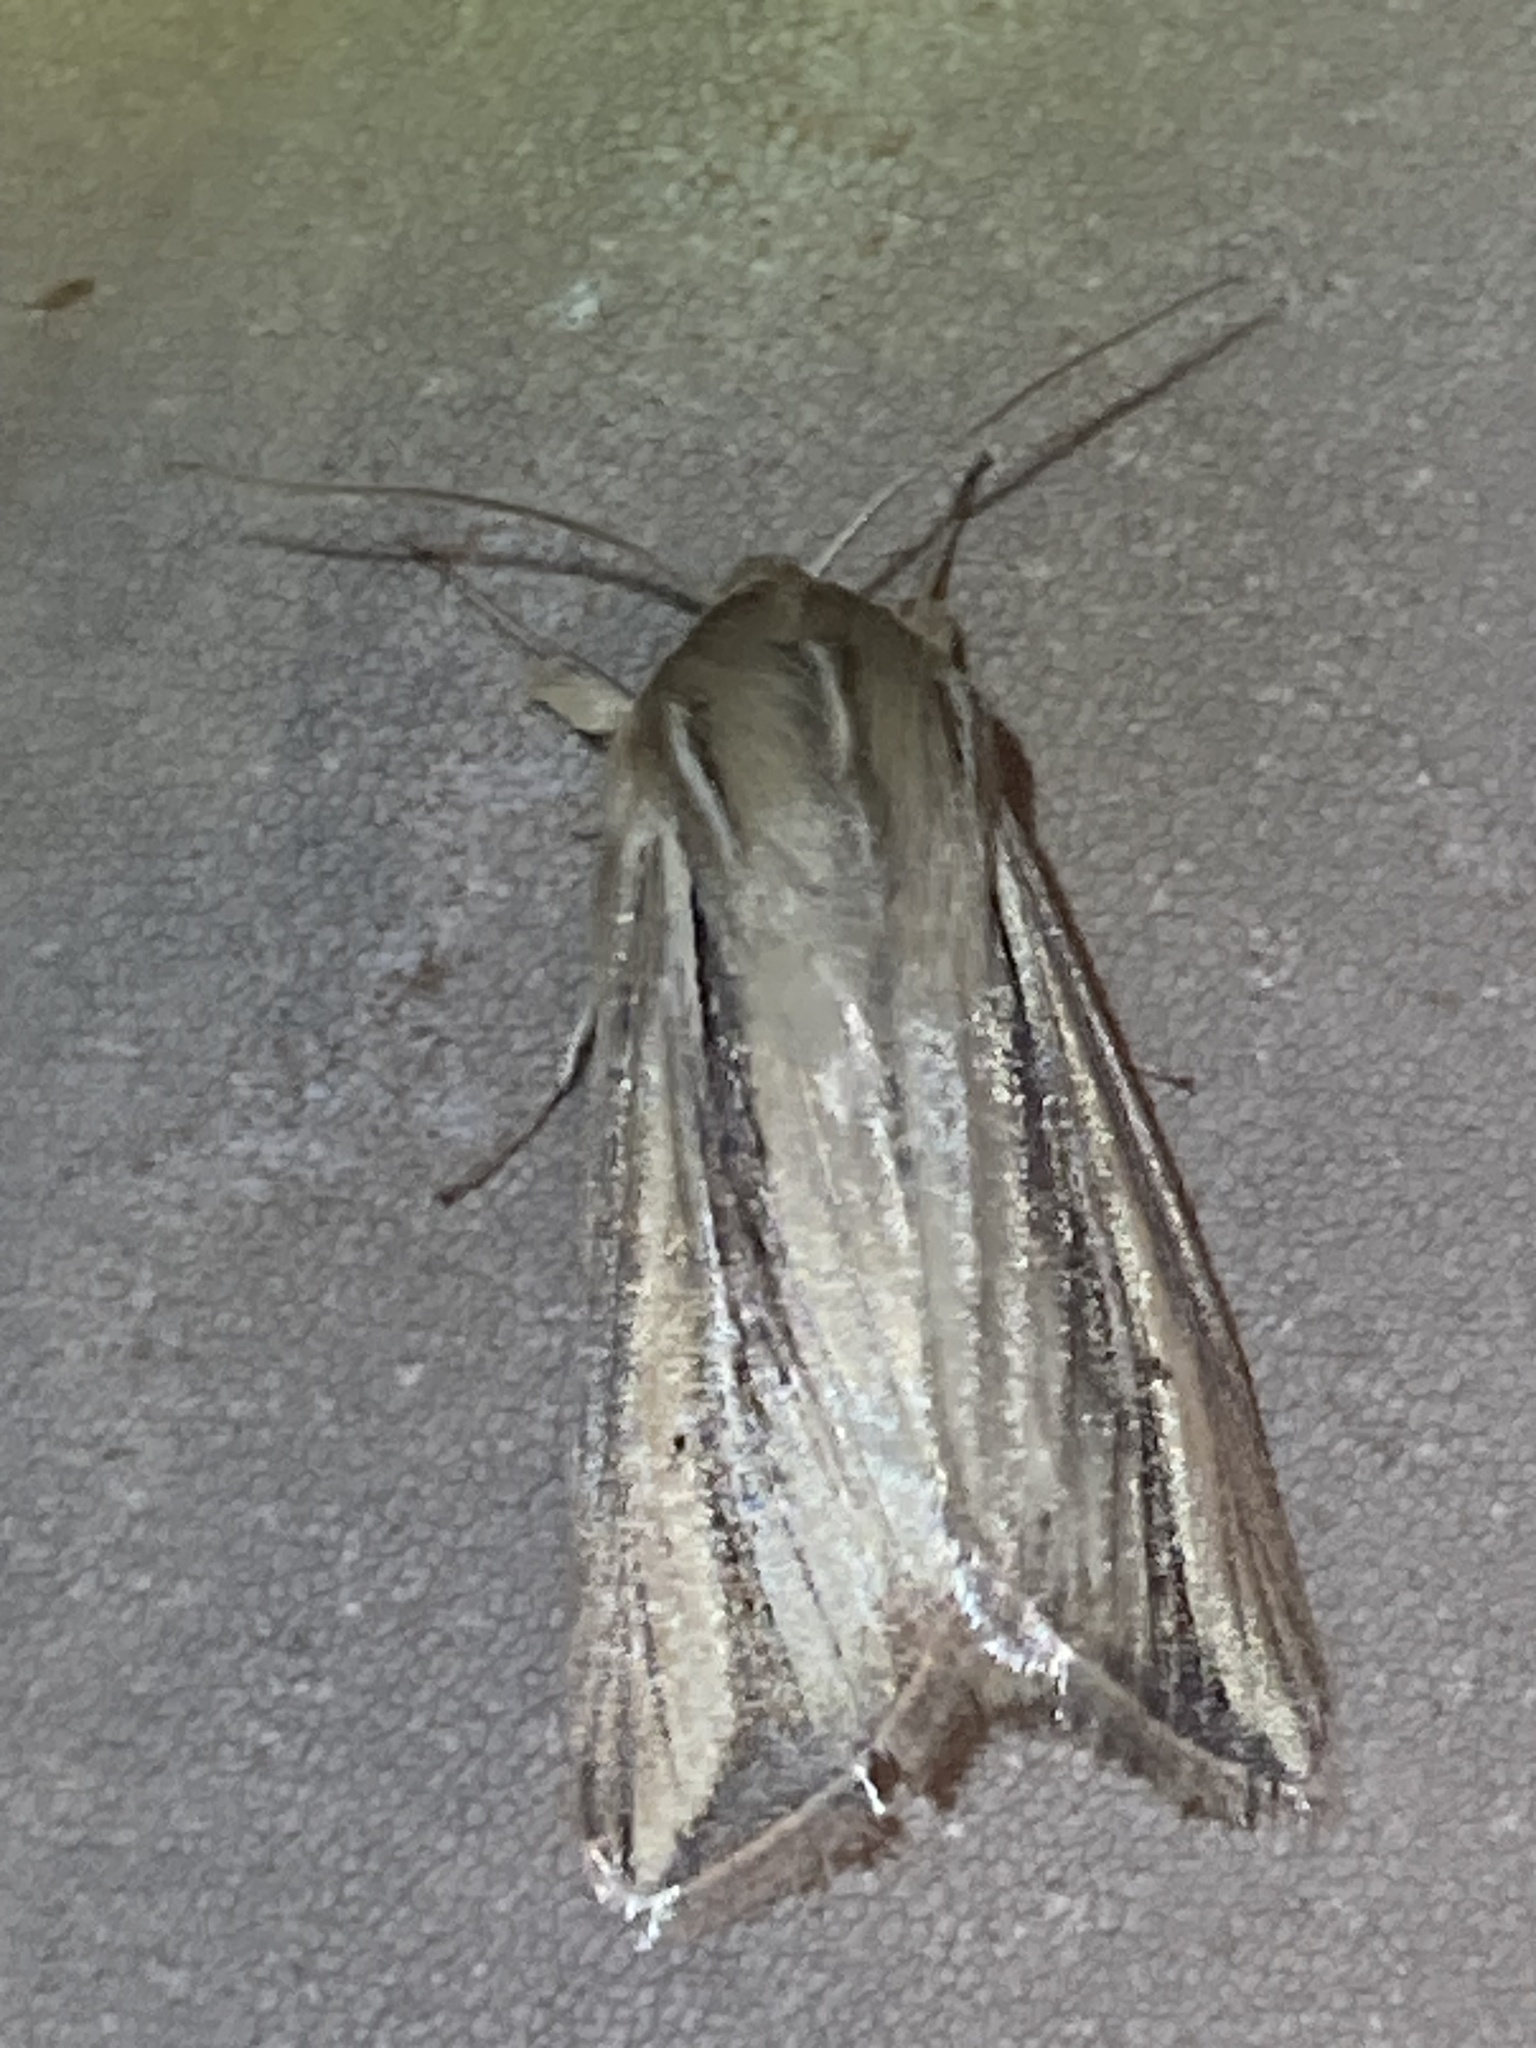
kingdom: Animalia
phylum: Arthropoda
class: Insecta
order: Lepidoptera
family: Noctuidae
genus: Dargida
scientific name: Dargida diffusa
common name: Wheat head armyworm
